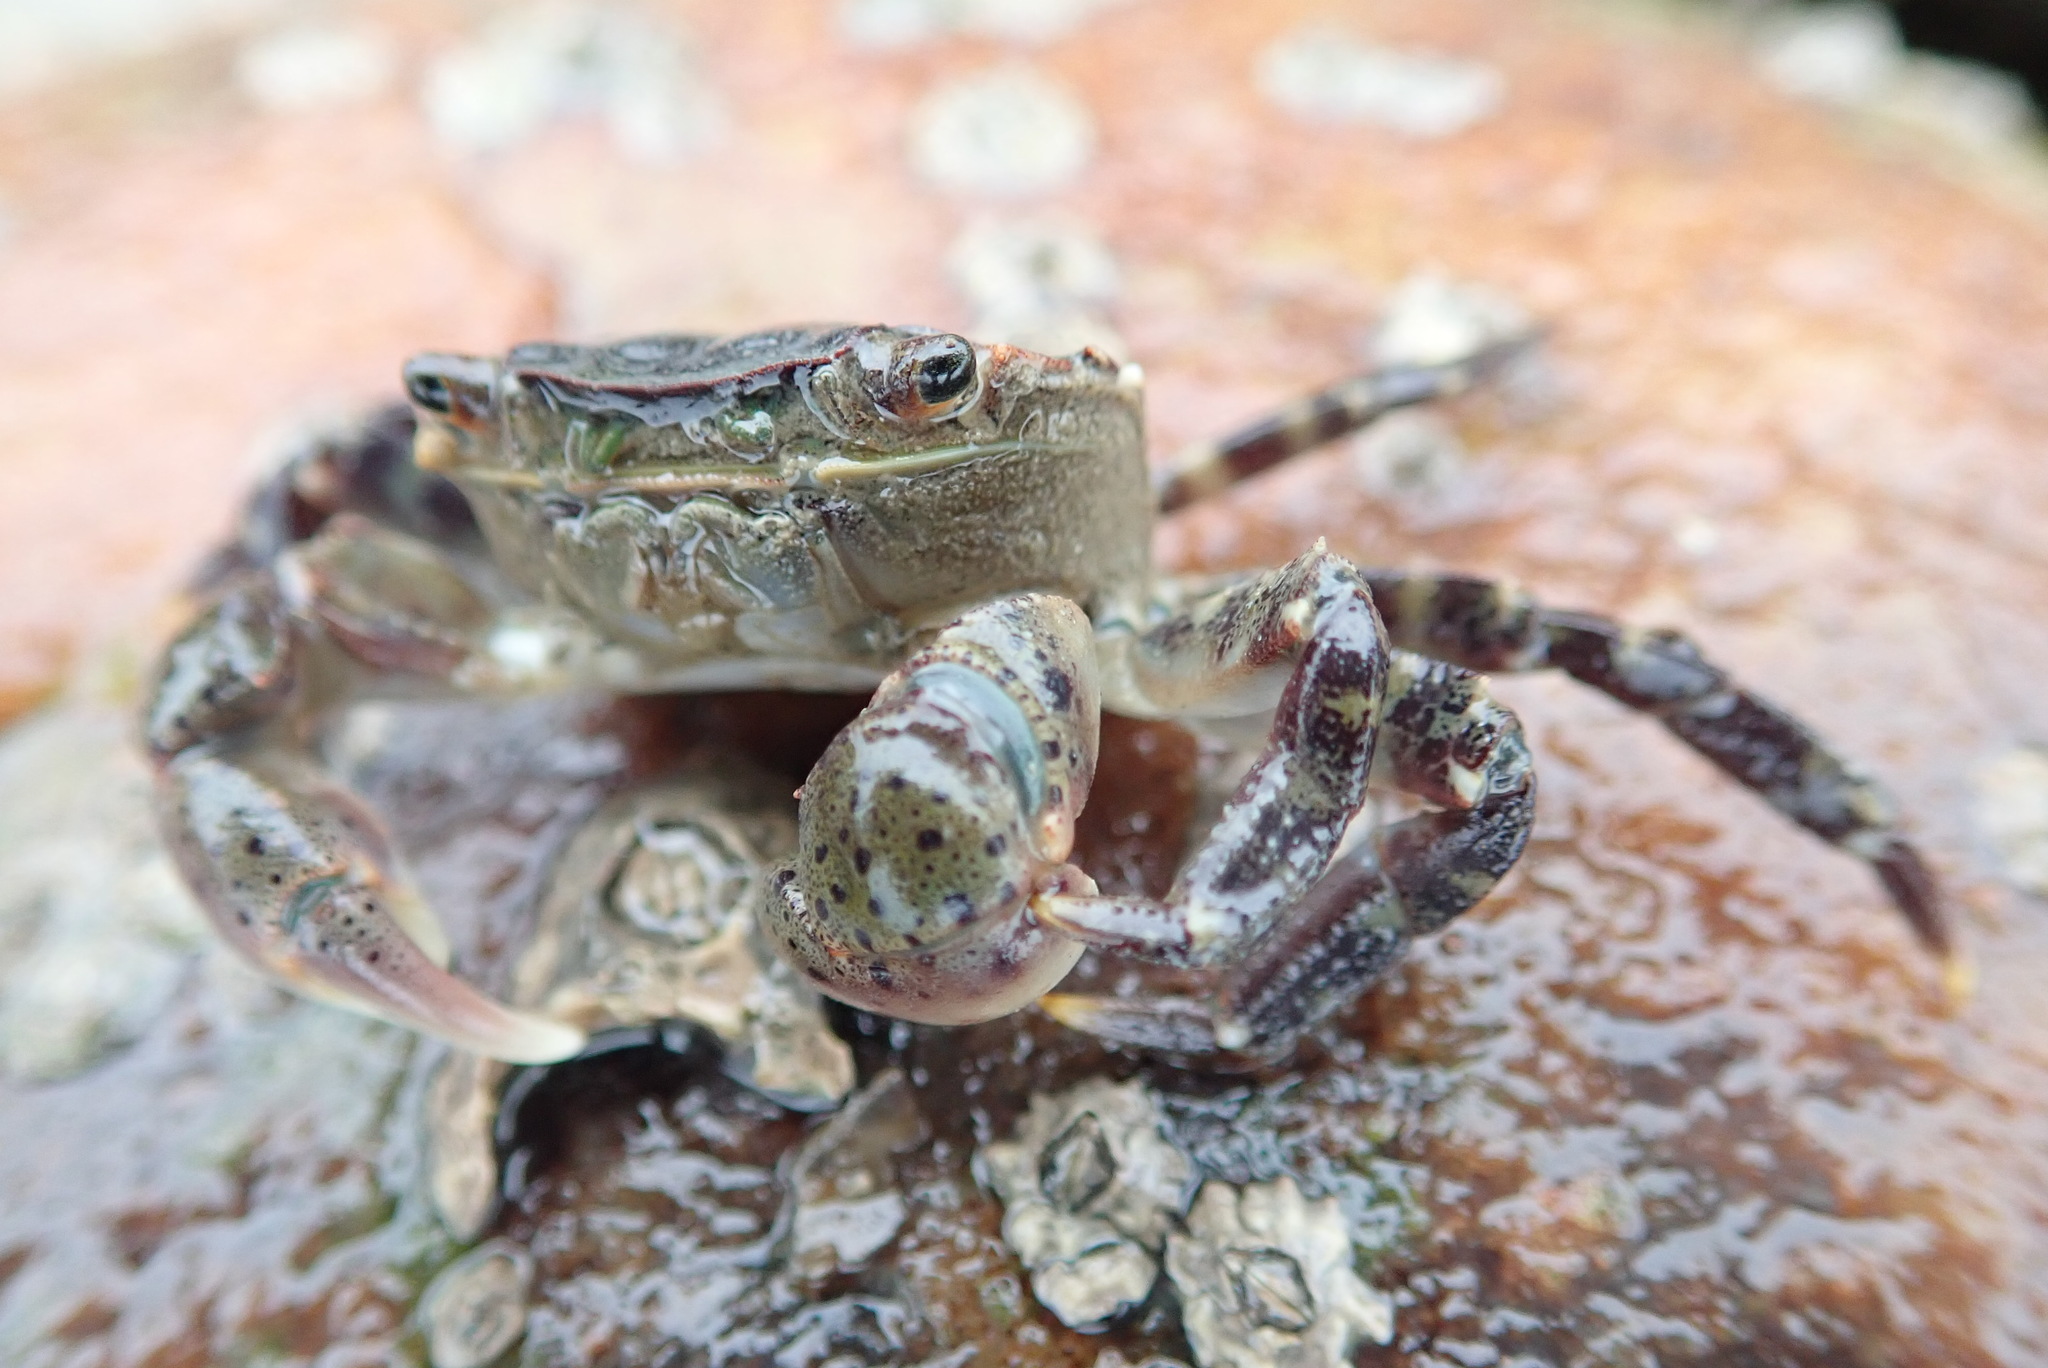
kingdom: Animalia
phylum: Arthropoda
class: Malacostraca
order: Decapoda
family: Varunidae
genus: Hemigrapsus
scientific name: Hemigrapsus sanguineus
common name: Asian shore crab
